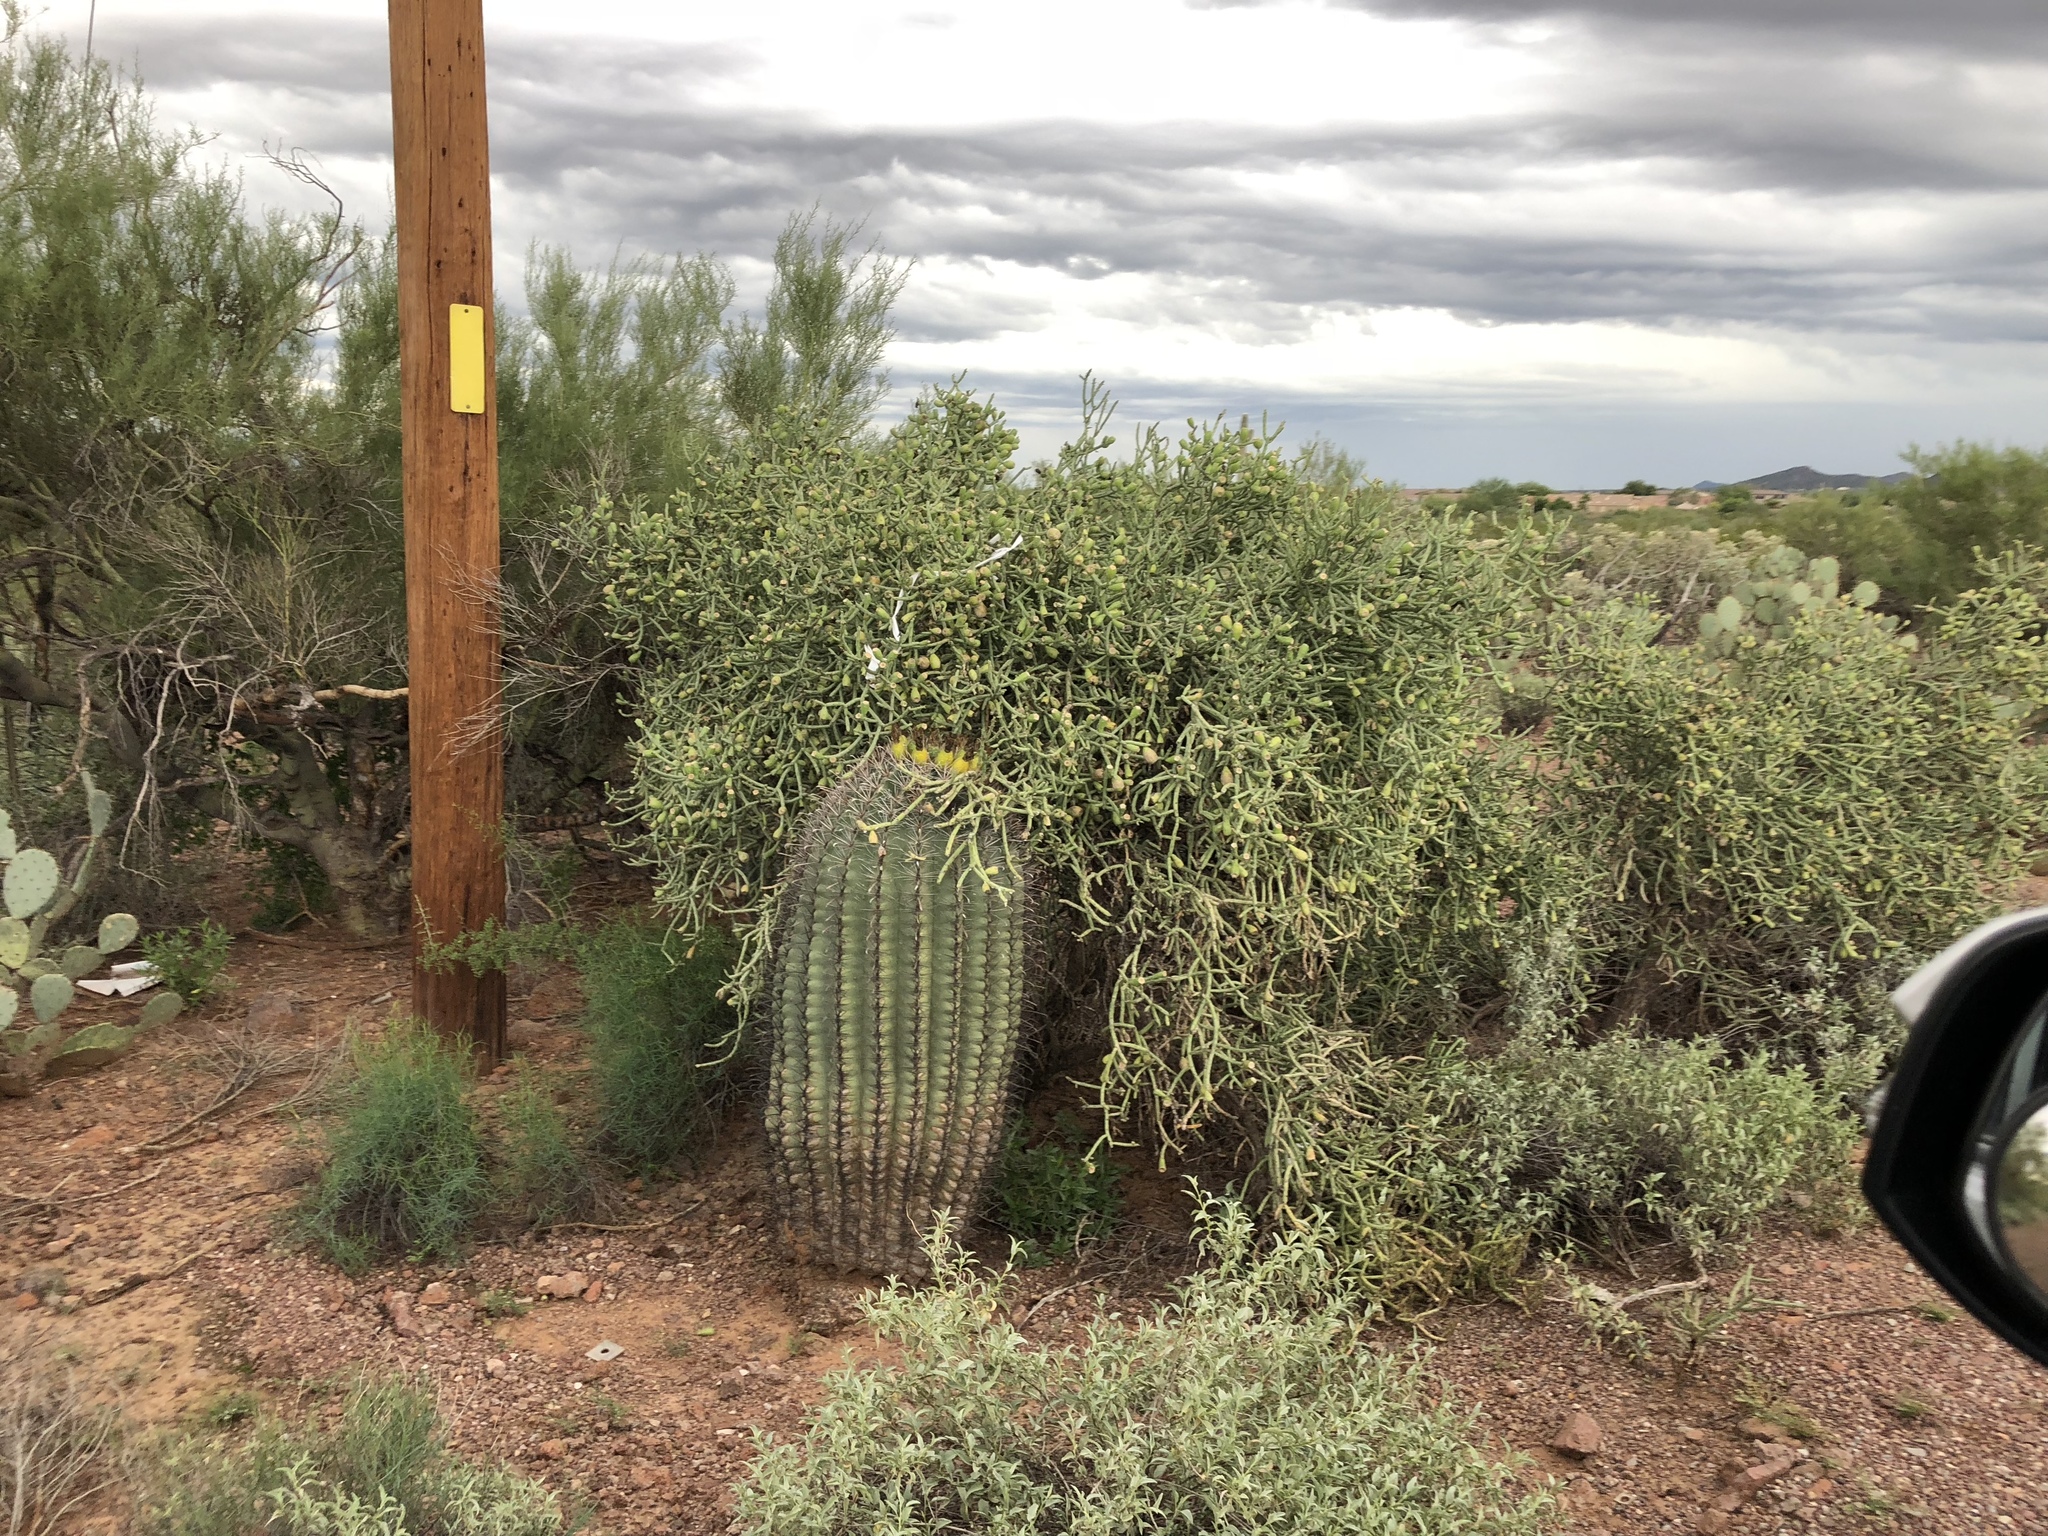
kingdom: Plantae
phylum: Tracheophyta
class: Magnoliopsida
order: Caryophyllales
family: Cactaceae
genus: Ferocactus
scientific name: Ferocactus wislizeni
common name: Candy barrel cactus
